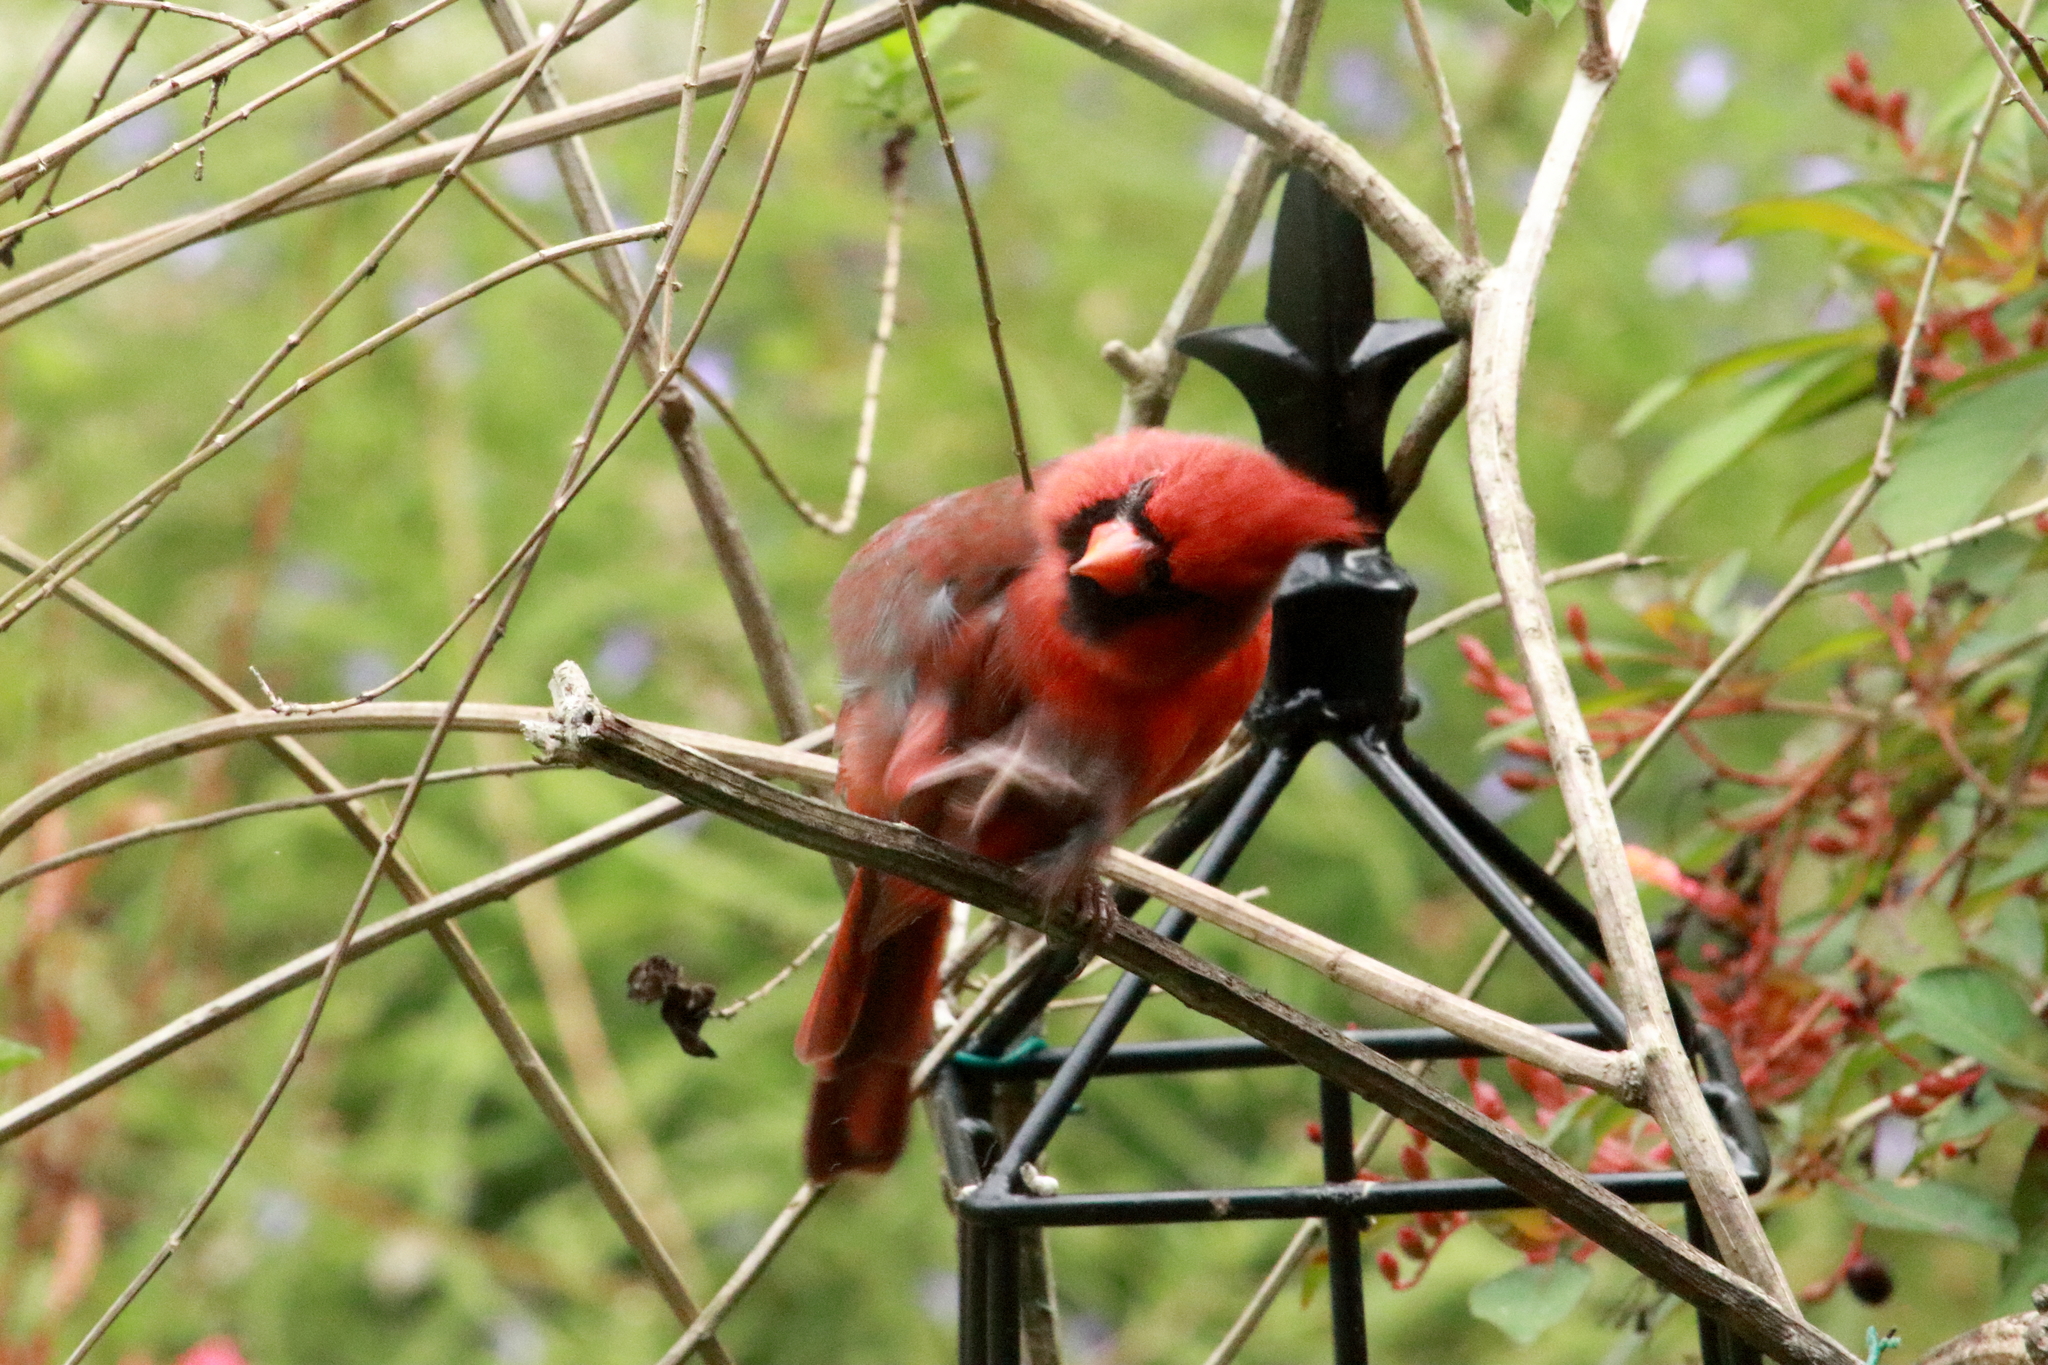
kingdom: Animalia
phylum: Chordata
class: Aves
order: Passeriformes
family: Cardinalidae
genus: Cardinalis
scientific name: Cardinalis cardinalis
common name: Northern cardinal
